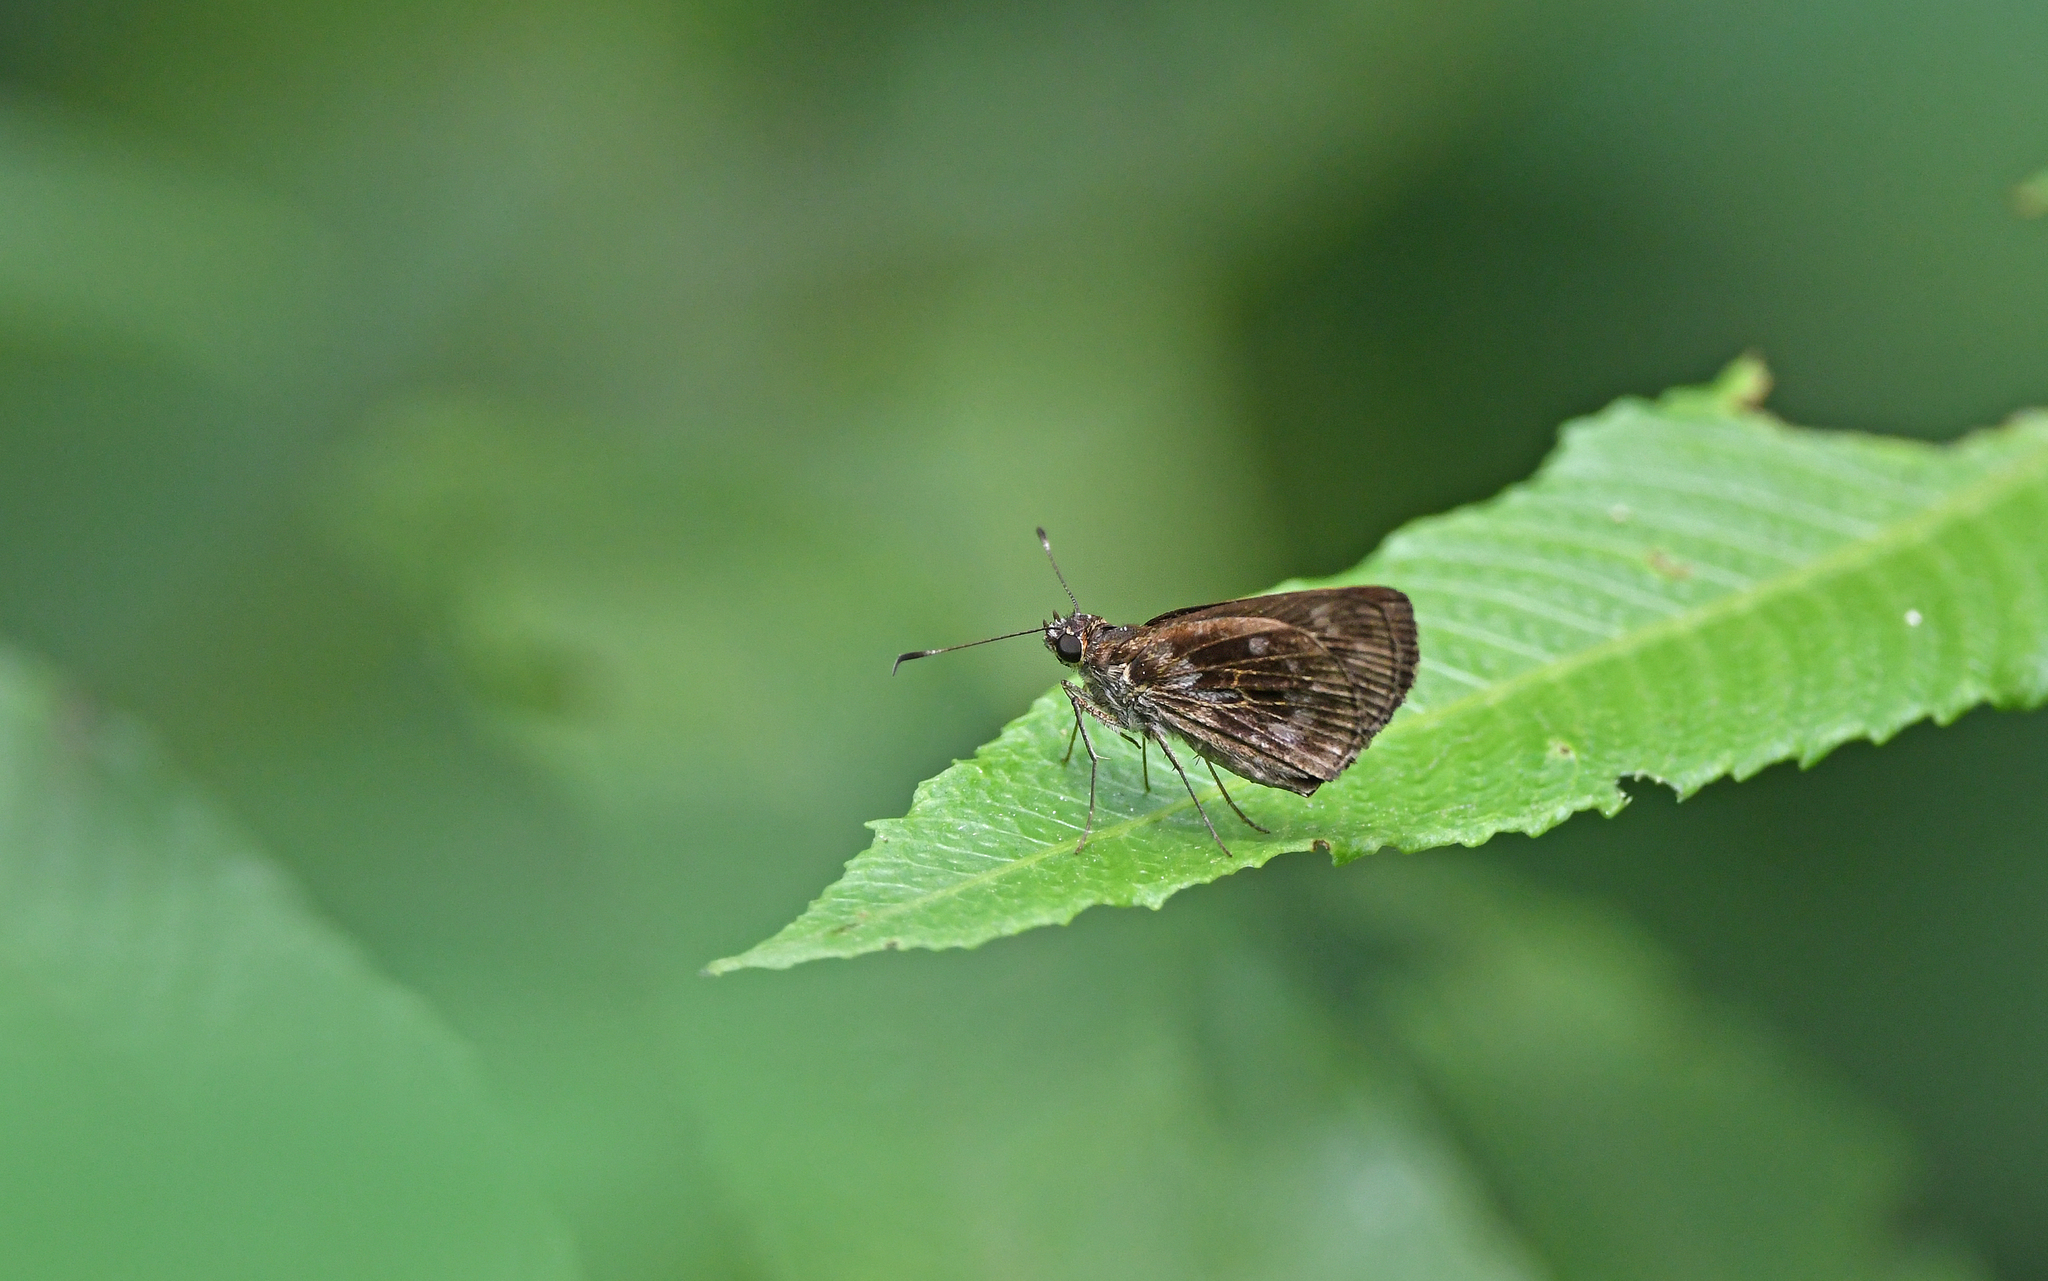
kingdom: Animalia
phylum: Arthropoda
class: Insecta
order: Lepidoptera
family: Hesperiidae
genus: Cymaenes
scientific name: Cymaenes uruba
